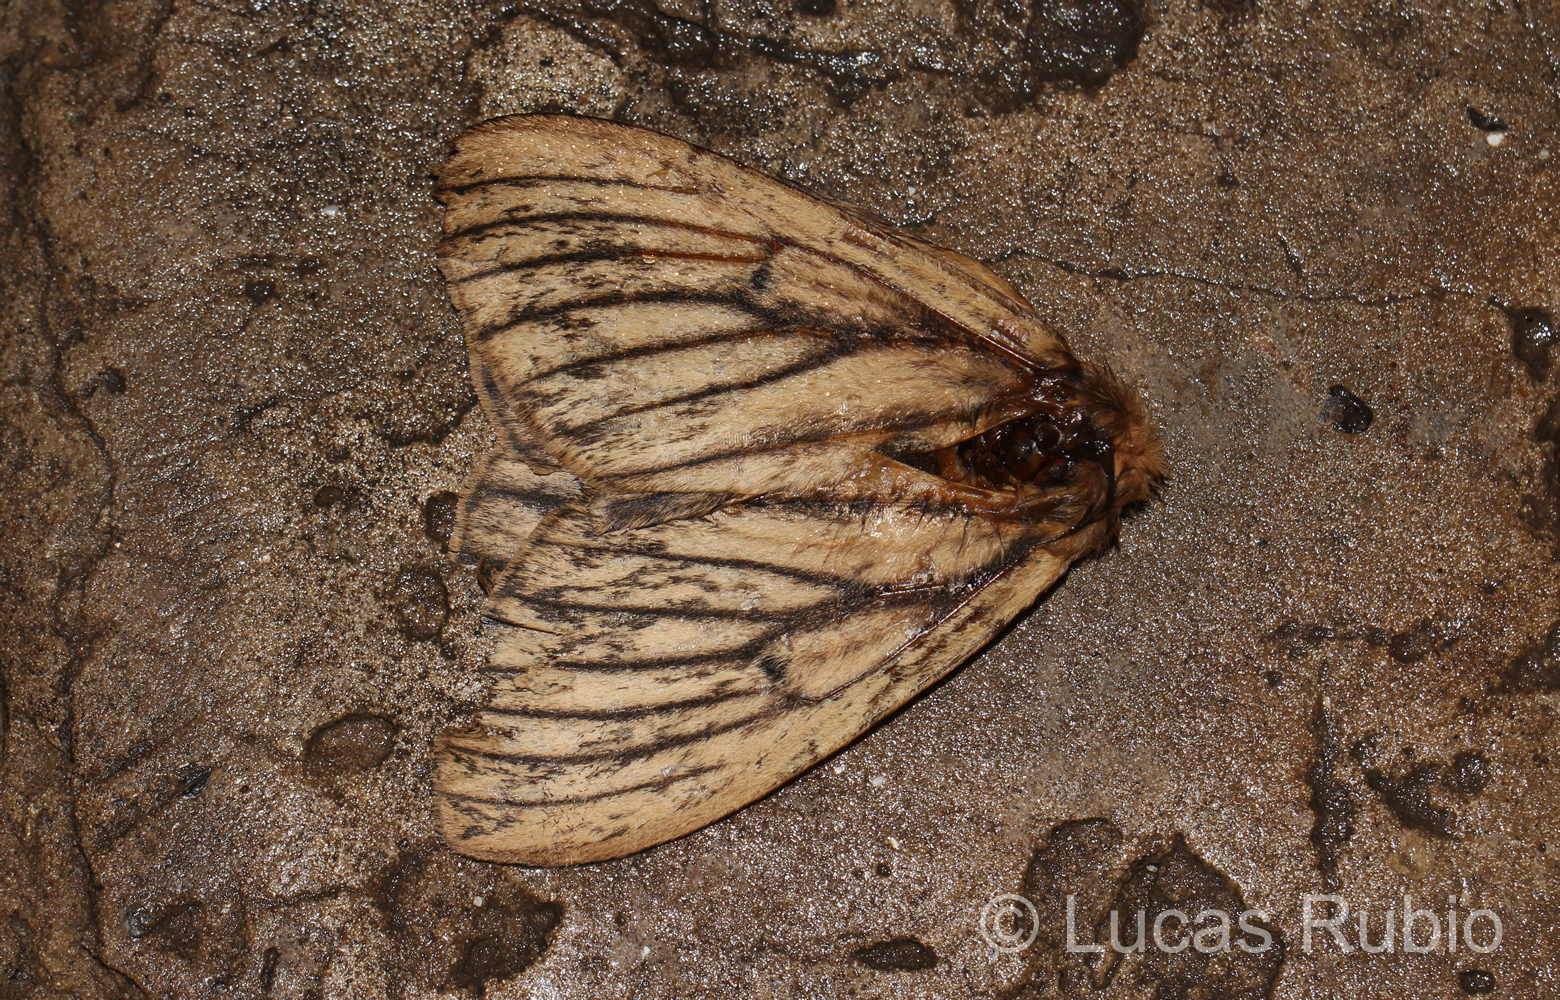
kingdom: Animalia
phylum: Arthropoda
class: Insecta
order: Lepidoptera
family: Saturniidae
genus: Eudyaria
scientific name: Eudyaria zeta
